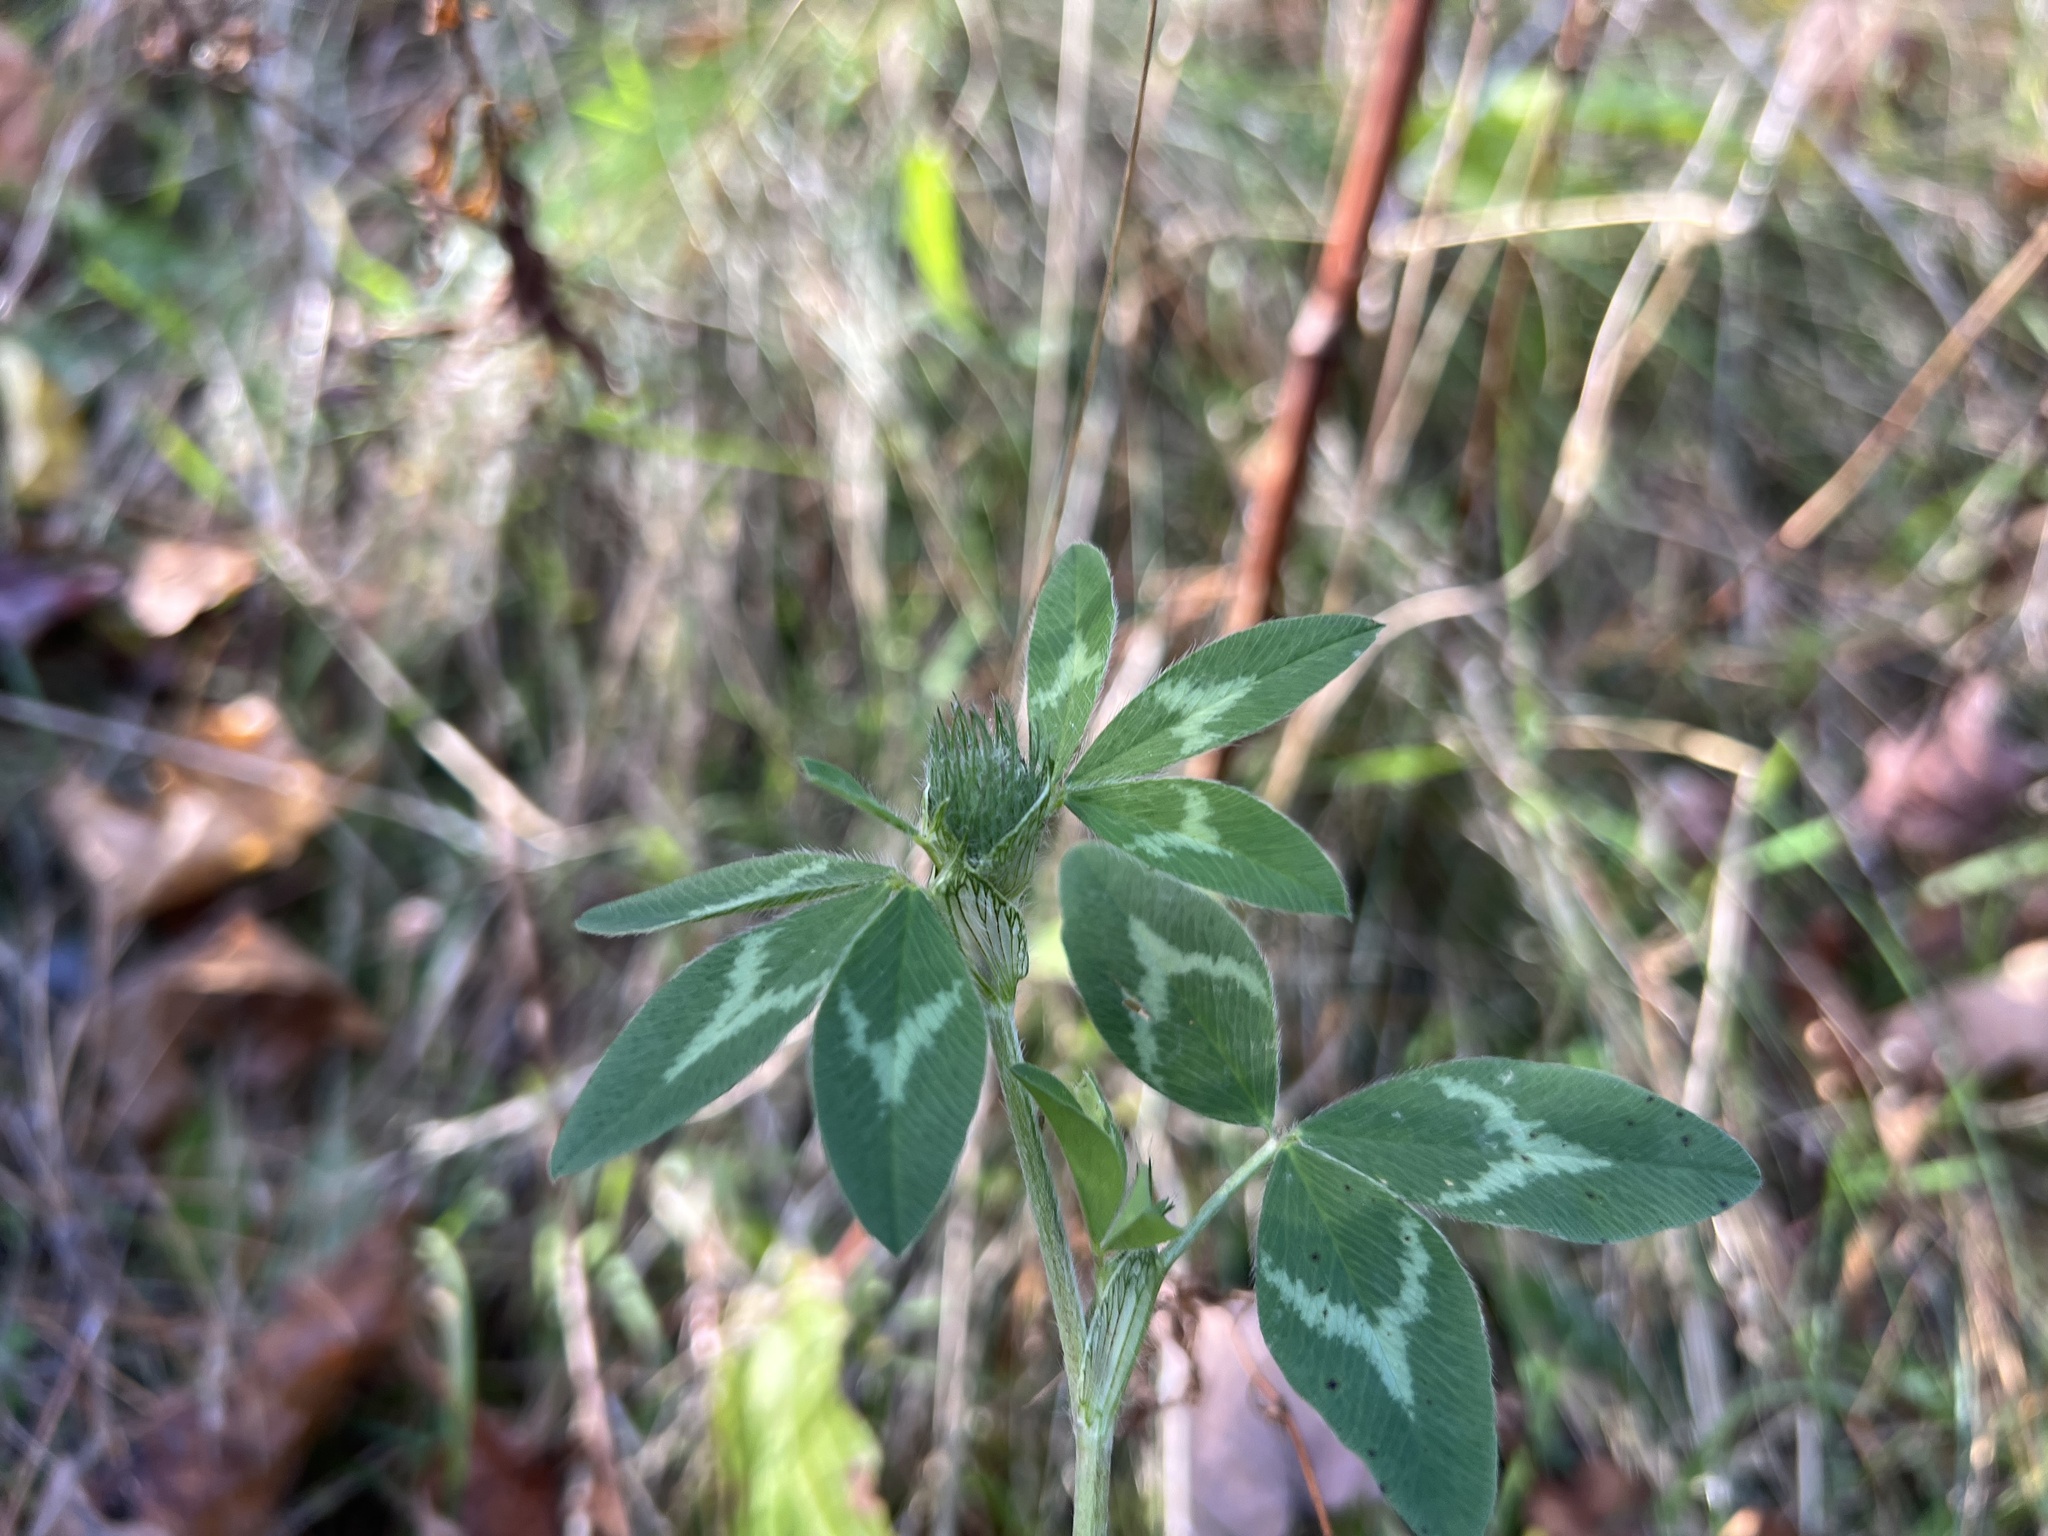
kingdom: Plantae
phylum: Tracheophyta
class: Magnoliopsida
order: Fabales
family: Fabaceae
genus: Trifolium
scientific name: Trifolium pratense
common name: Red clover
